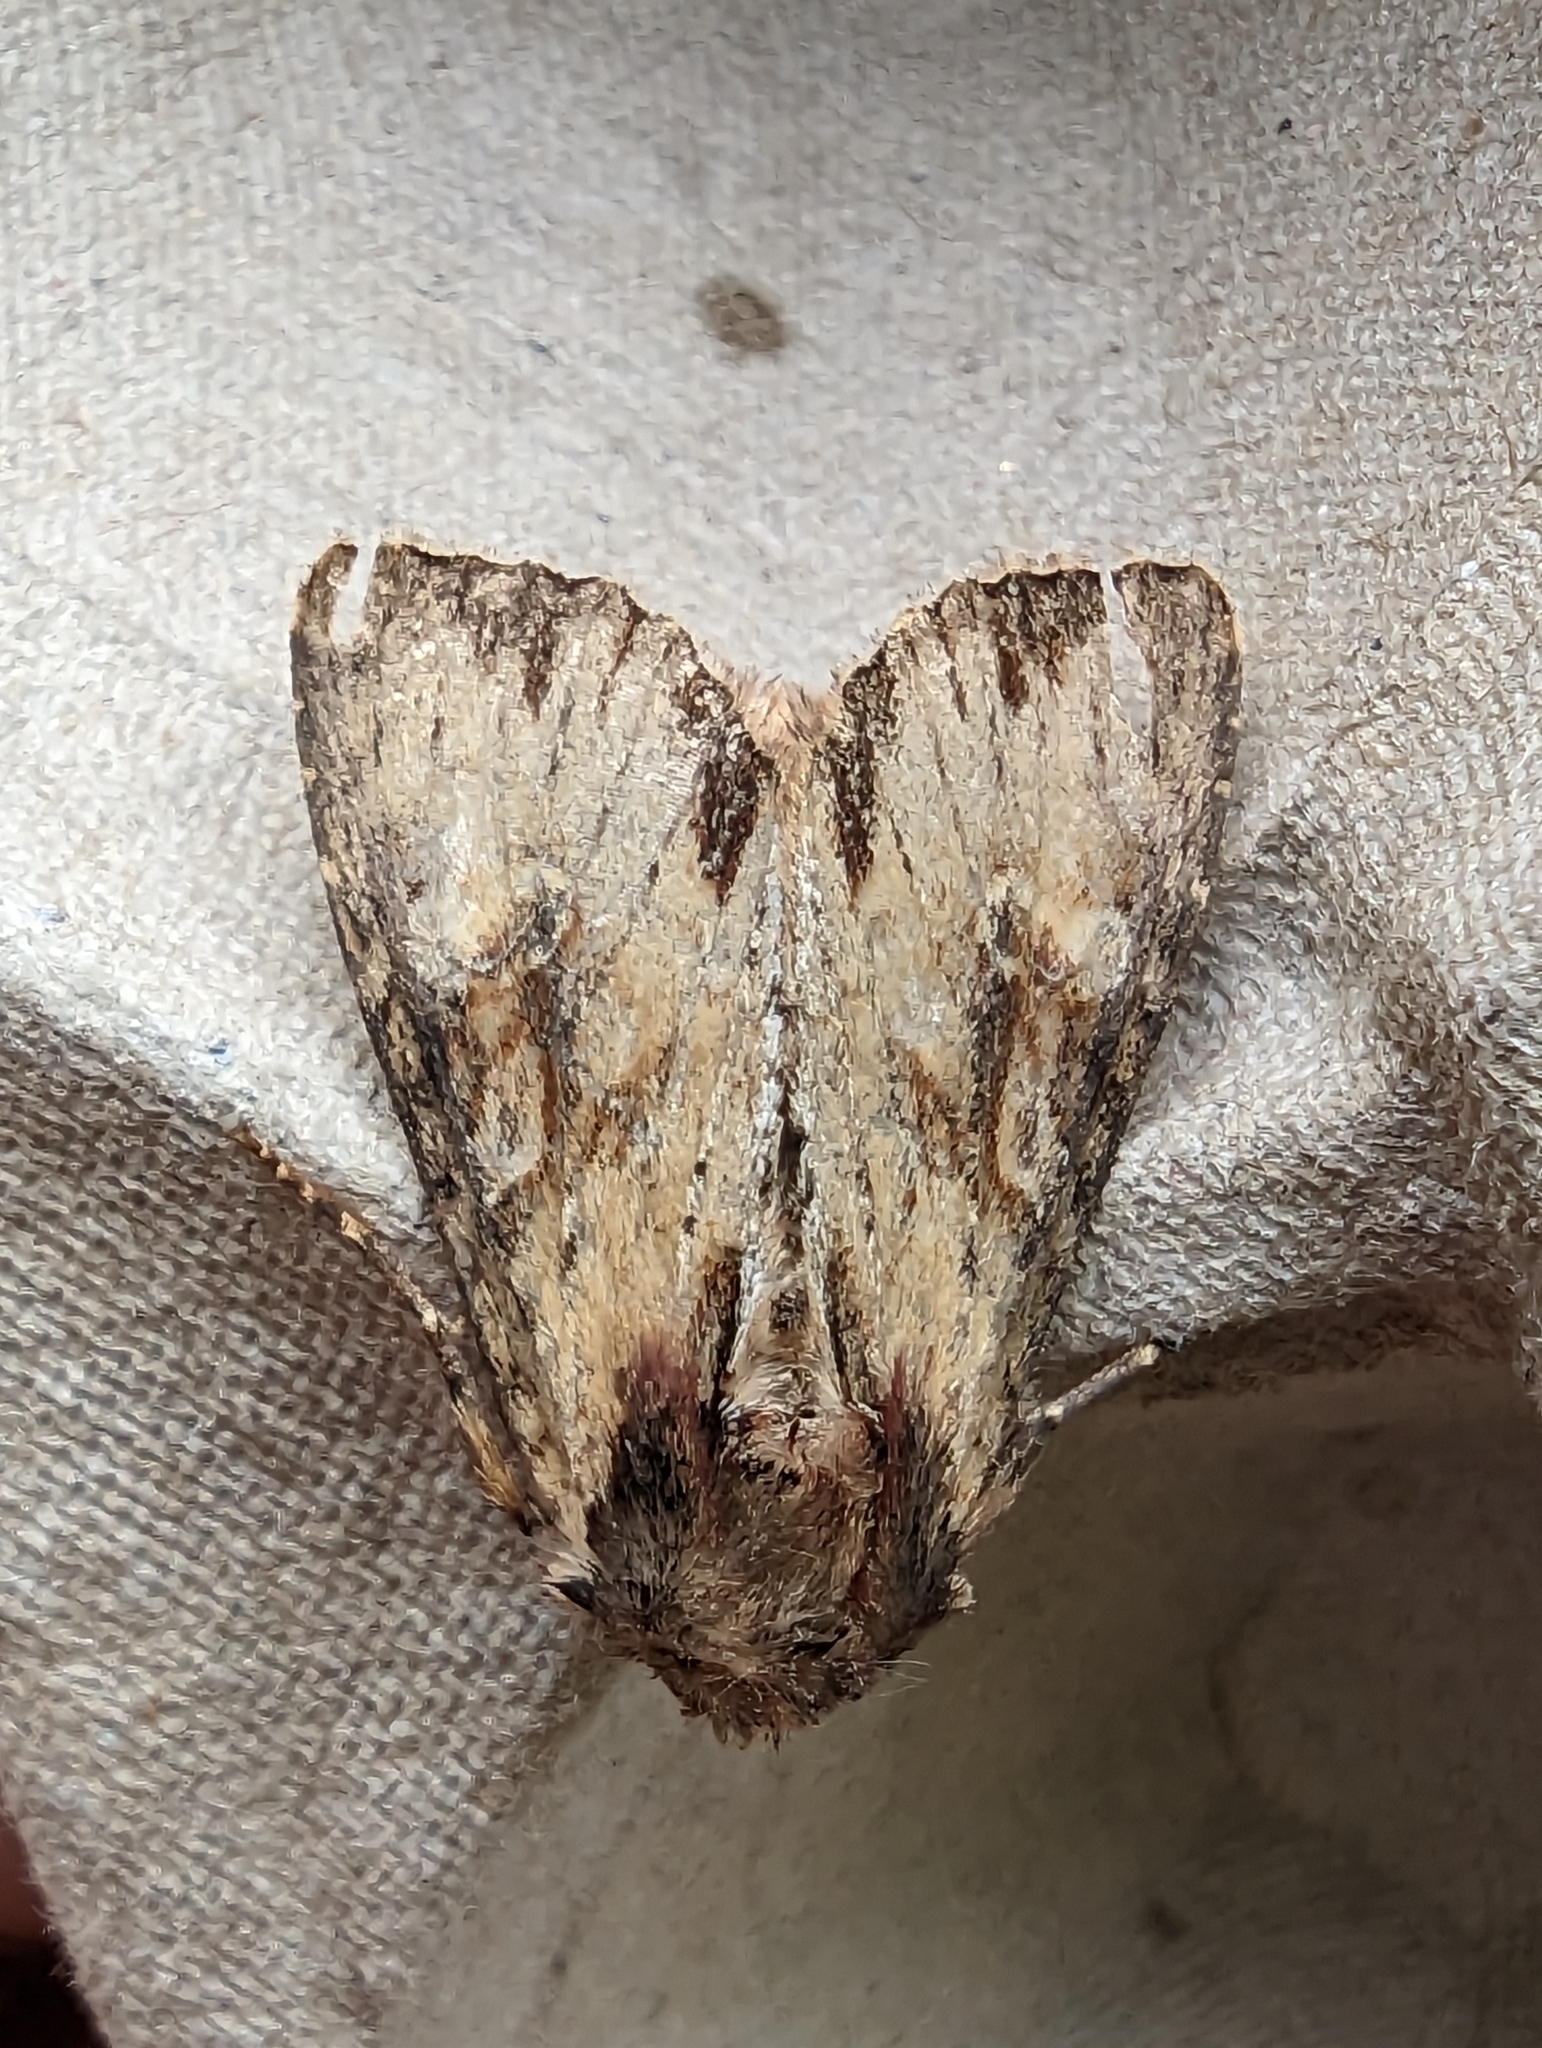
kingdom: Animalia
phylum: Arthropoda
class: Insecta
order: Lepidoptera
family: Noctuidae
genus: Apamea
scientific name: Apamea crenata
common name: Clouded-bordered brindle
